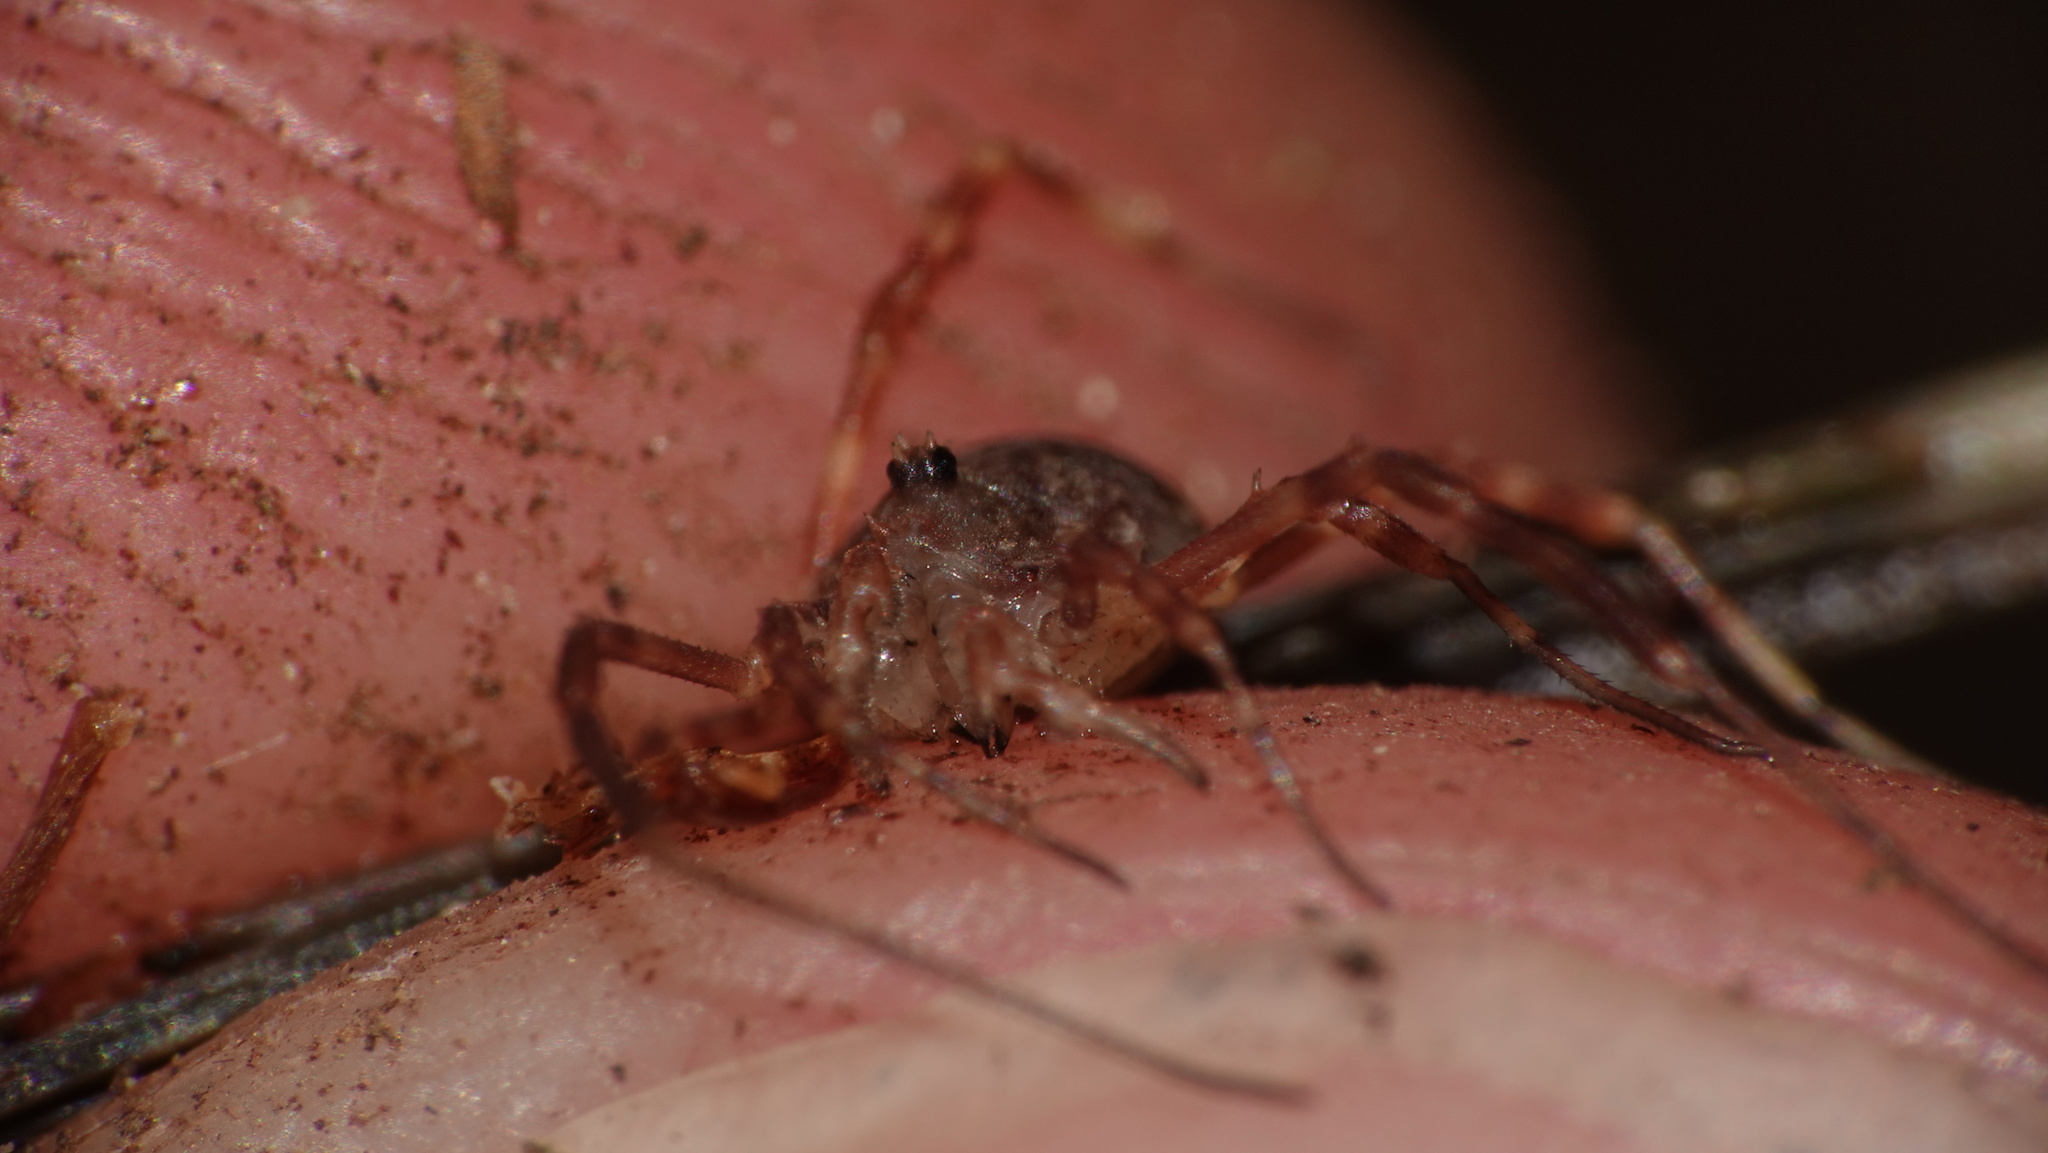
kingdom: Animalia
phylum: Arthropoda
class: Arachnida
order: Opiliones
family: Phalangiidae
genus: Lophopilio
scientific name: Lophopilio palpinalis
